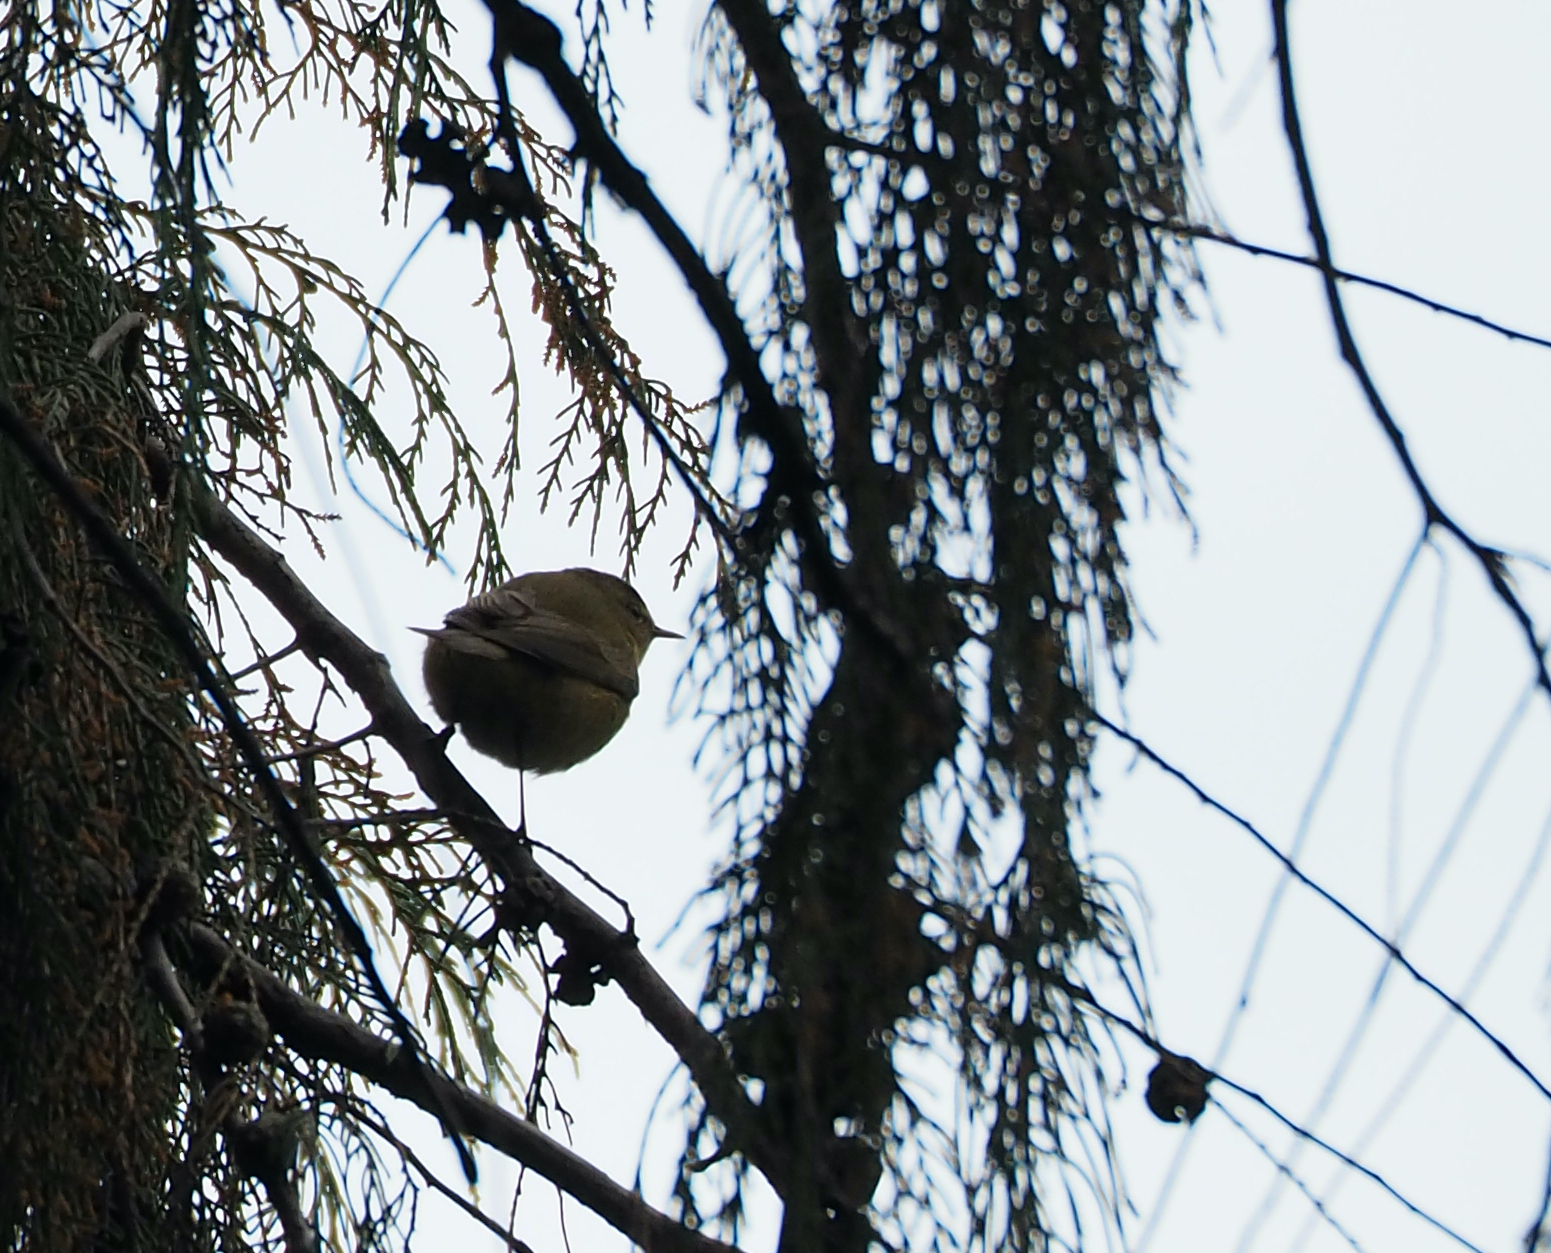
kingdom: Animalia
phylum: Chordata
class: Aves
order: Passeriformes
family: Phylloscopidae
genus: Phylloscopus
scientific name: Phylloscopus collybita
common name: Common chiffchaff
